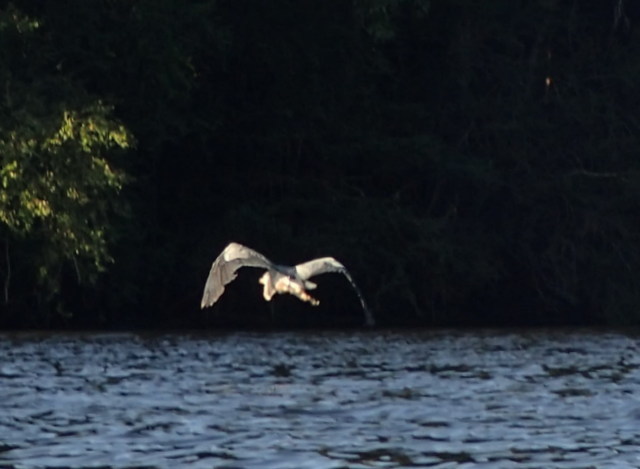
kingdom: Animalia
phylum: Chordata
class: Aves
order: Pelecaniformes
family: Ardeidae
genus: Ardea
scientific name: Ardea herodias
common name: Great blue heron
